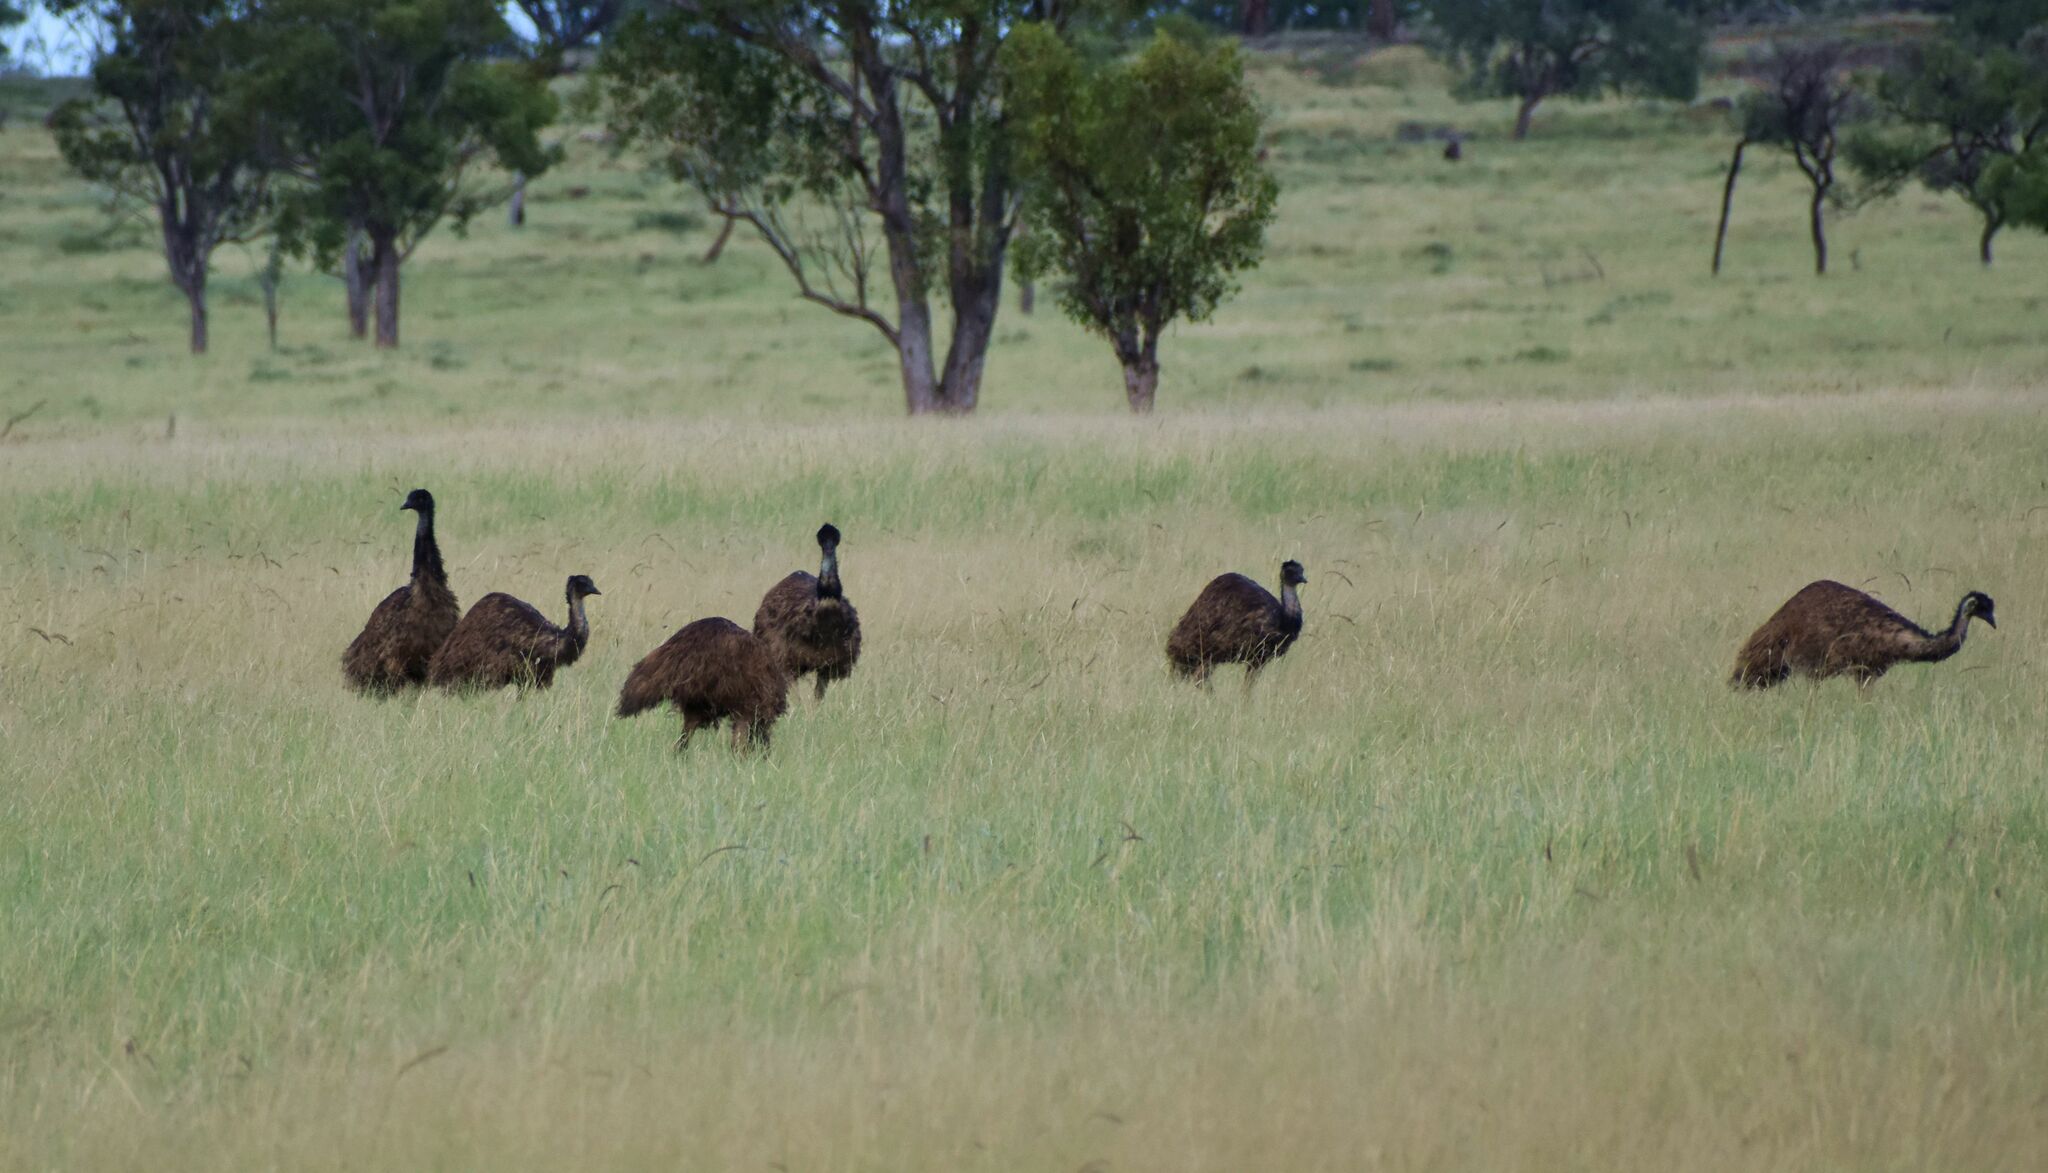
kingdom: Animalia
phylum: Chordata
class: Aves
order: Casuariiformes
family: Dromaiidae
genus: Dromaius
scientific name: Dromaius novaehollandiae
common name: Emu
